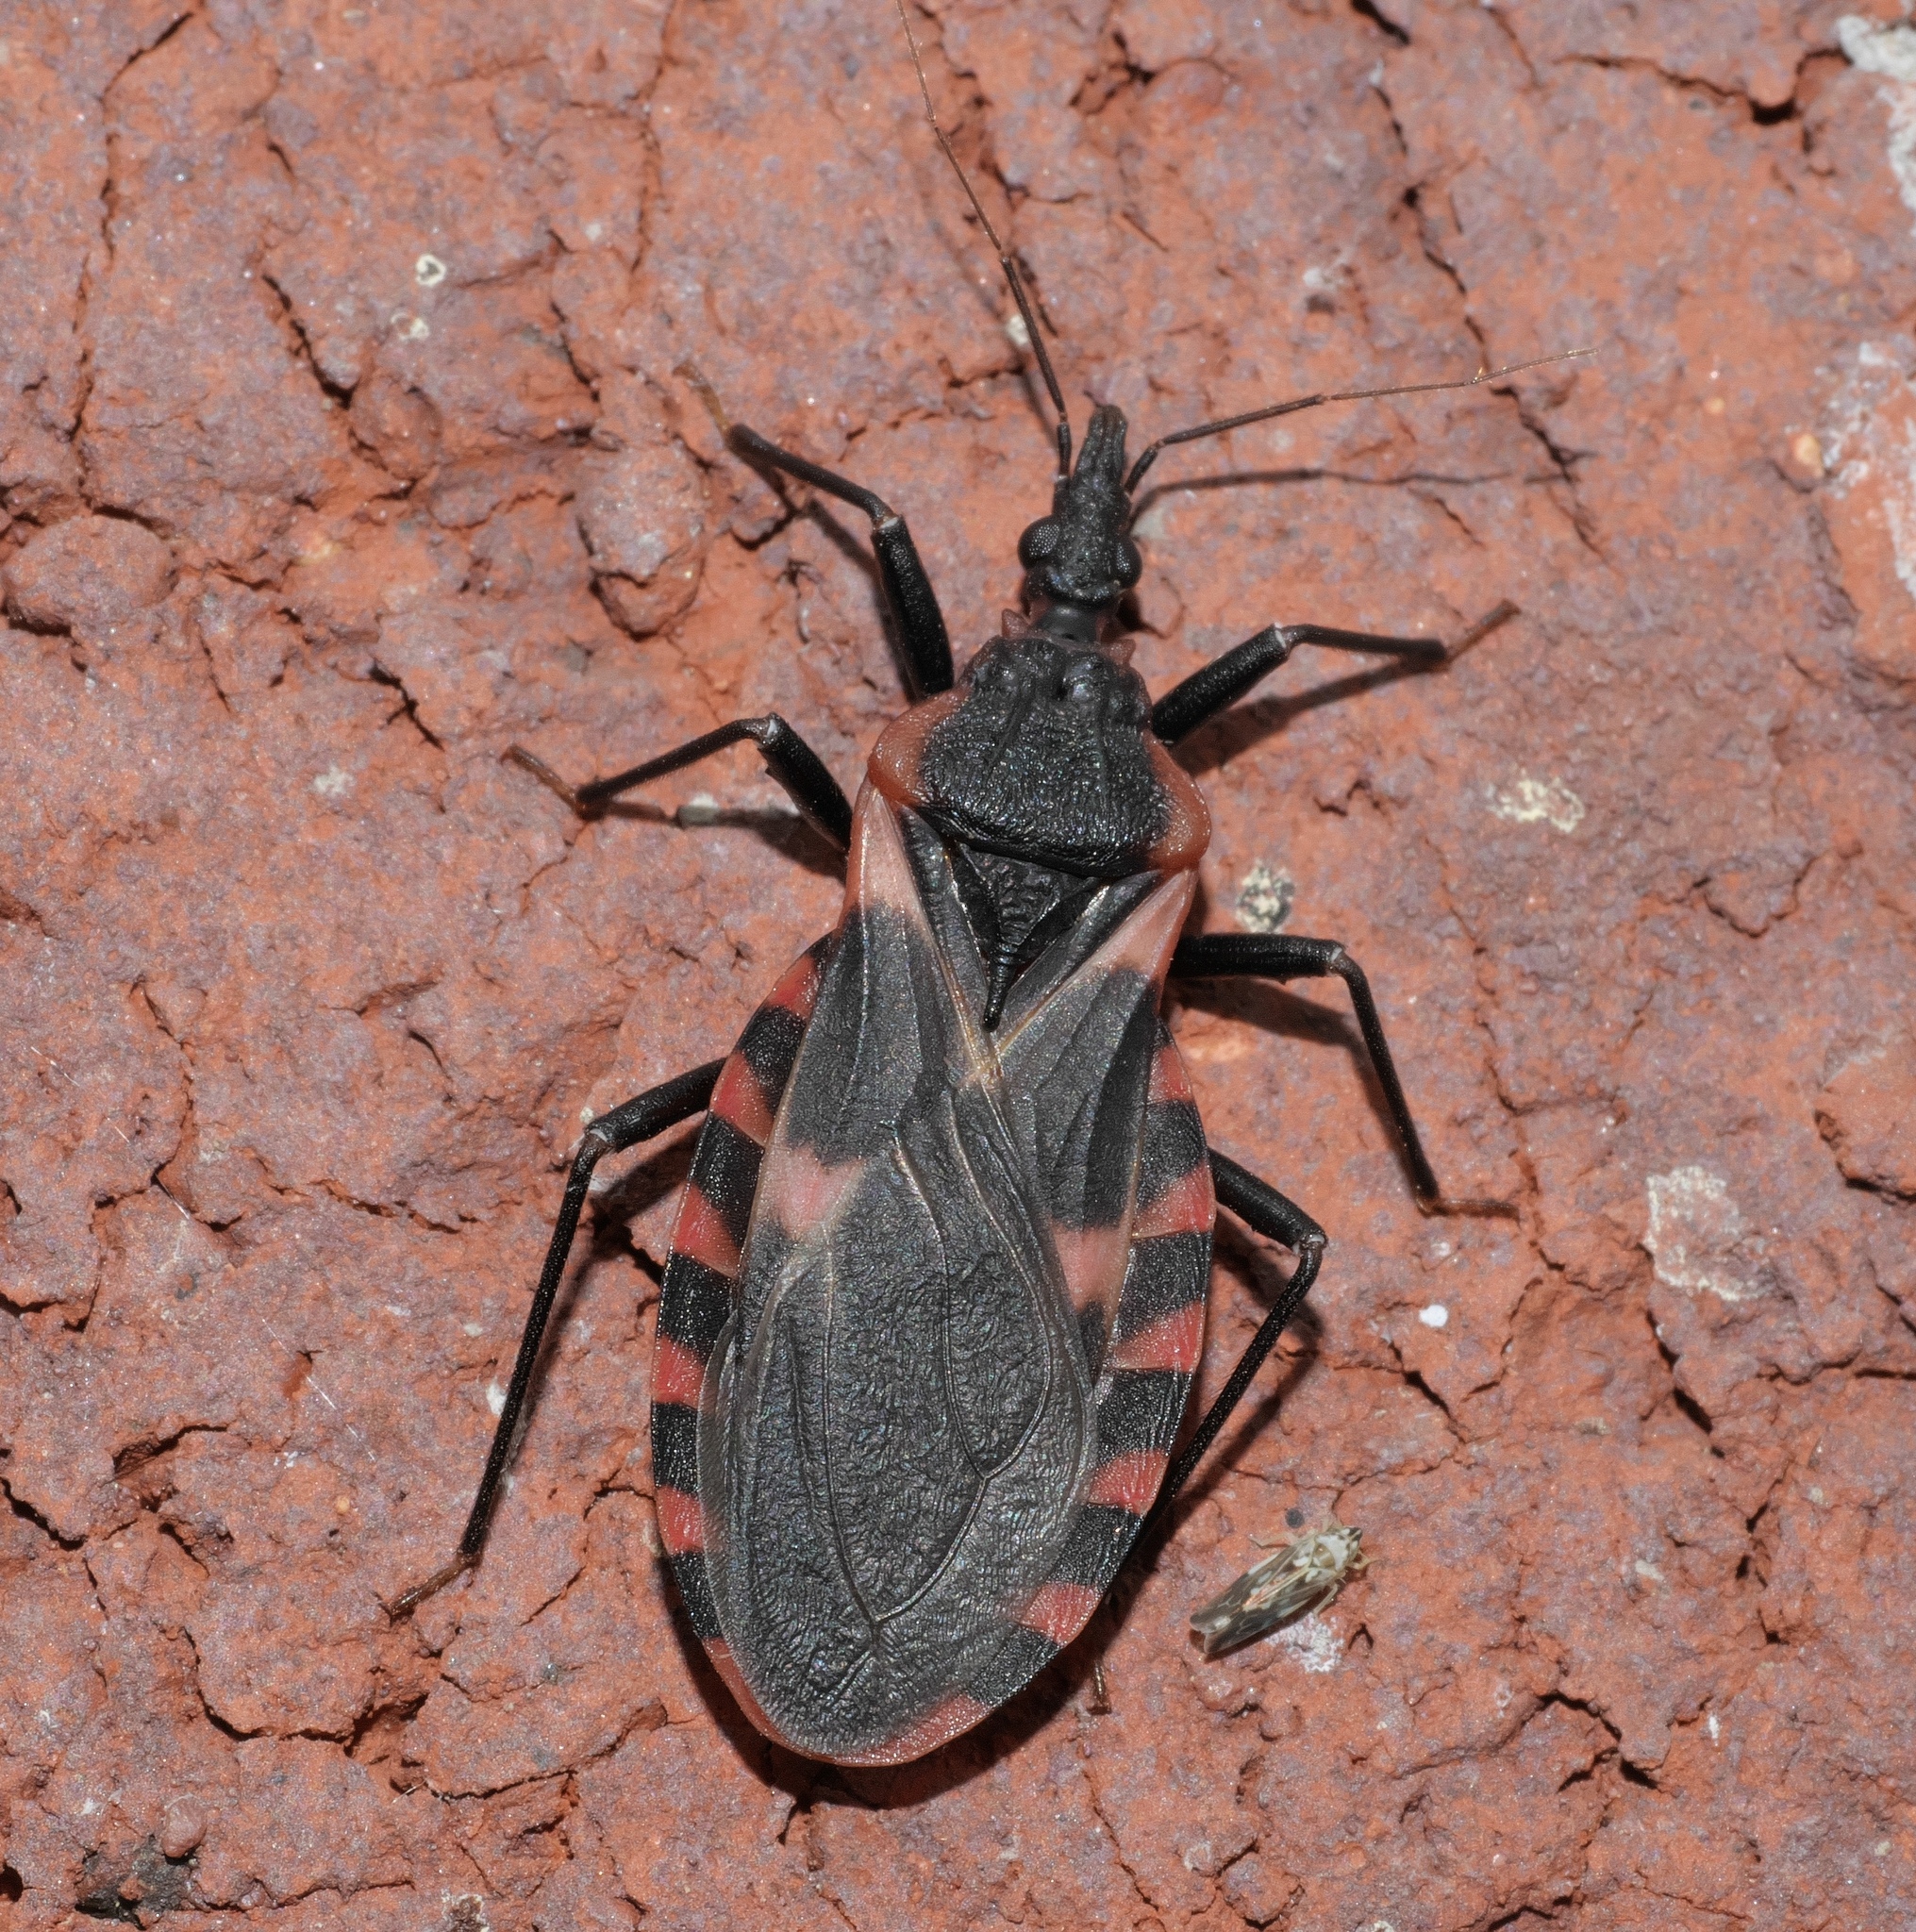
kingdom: Animalia
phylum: Arthropoda
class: Insecta
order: Hemiptera
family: Reduviidae
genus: Triatoma
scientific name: Triatoma sanguisuga
